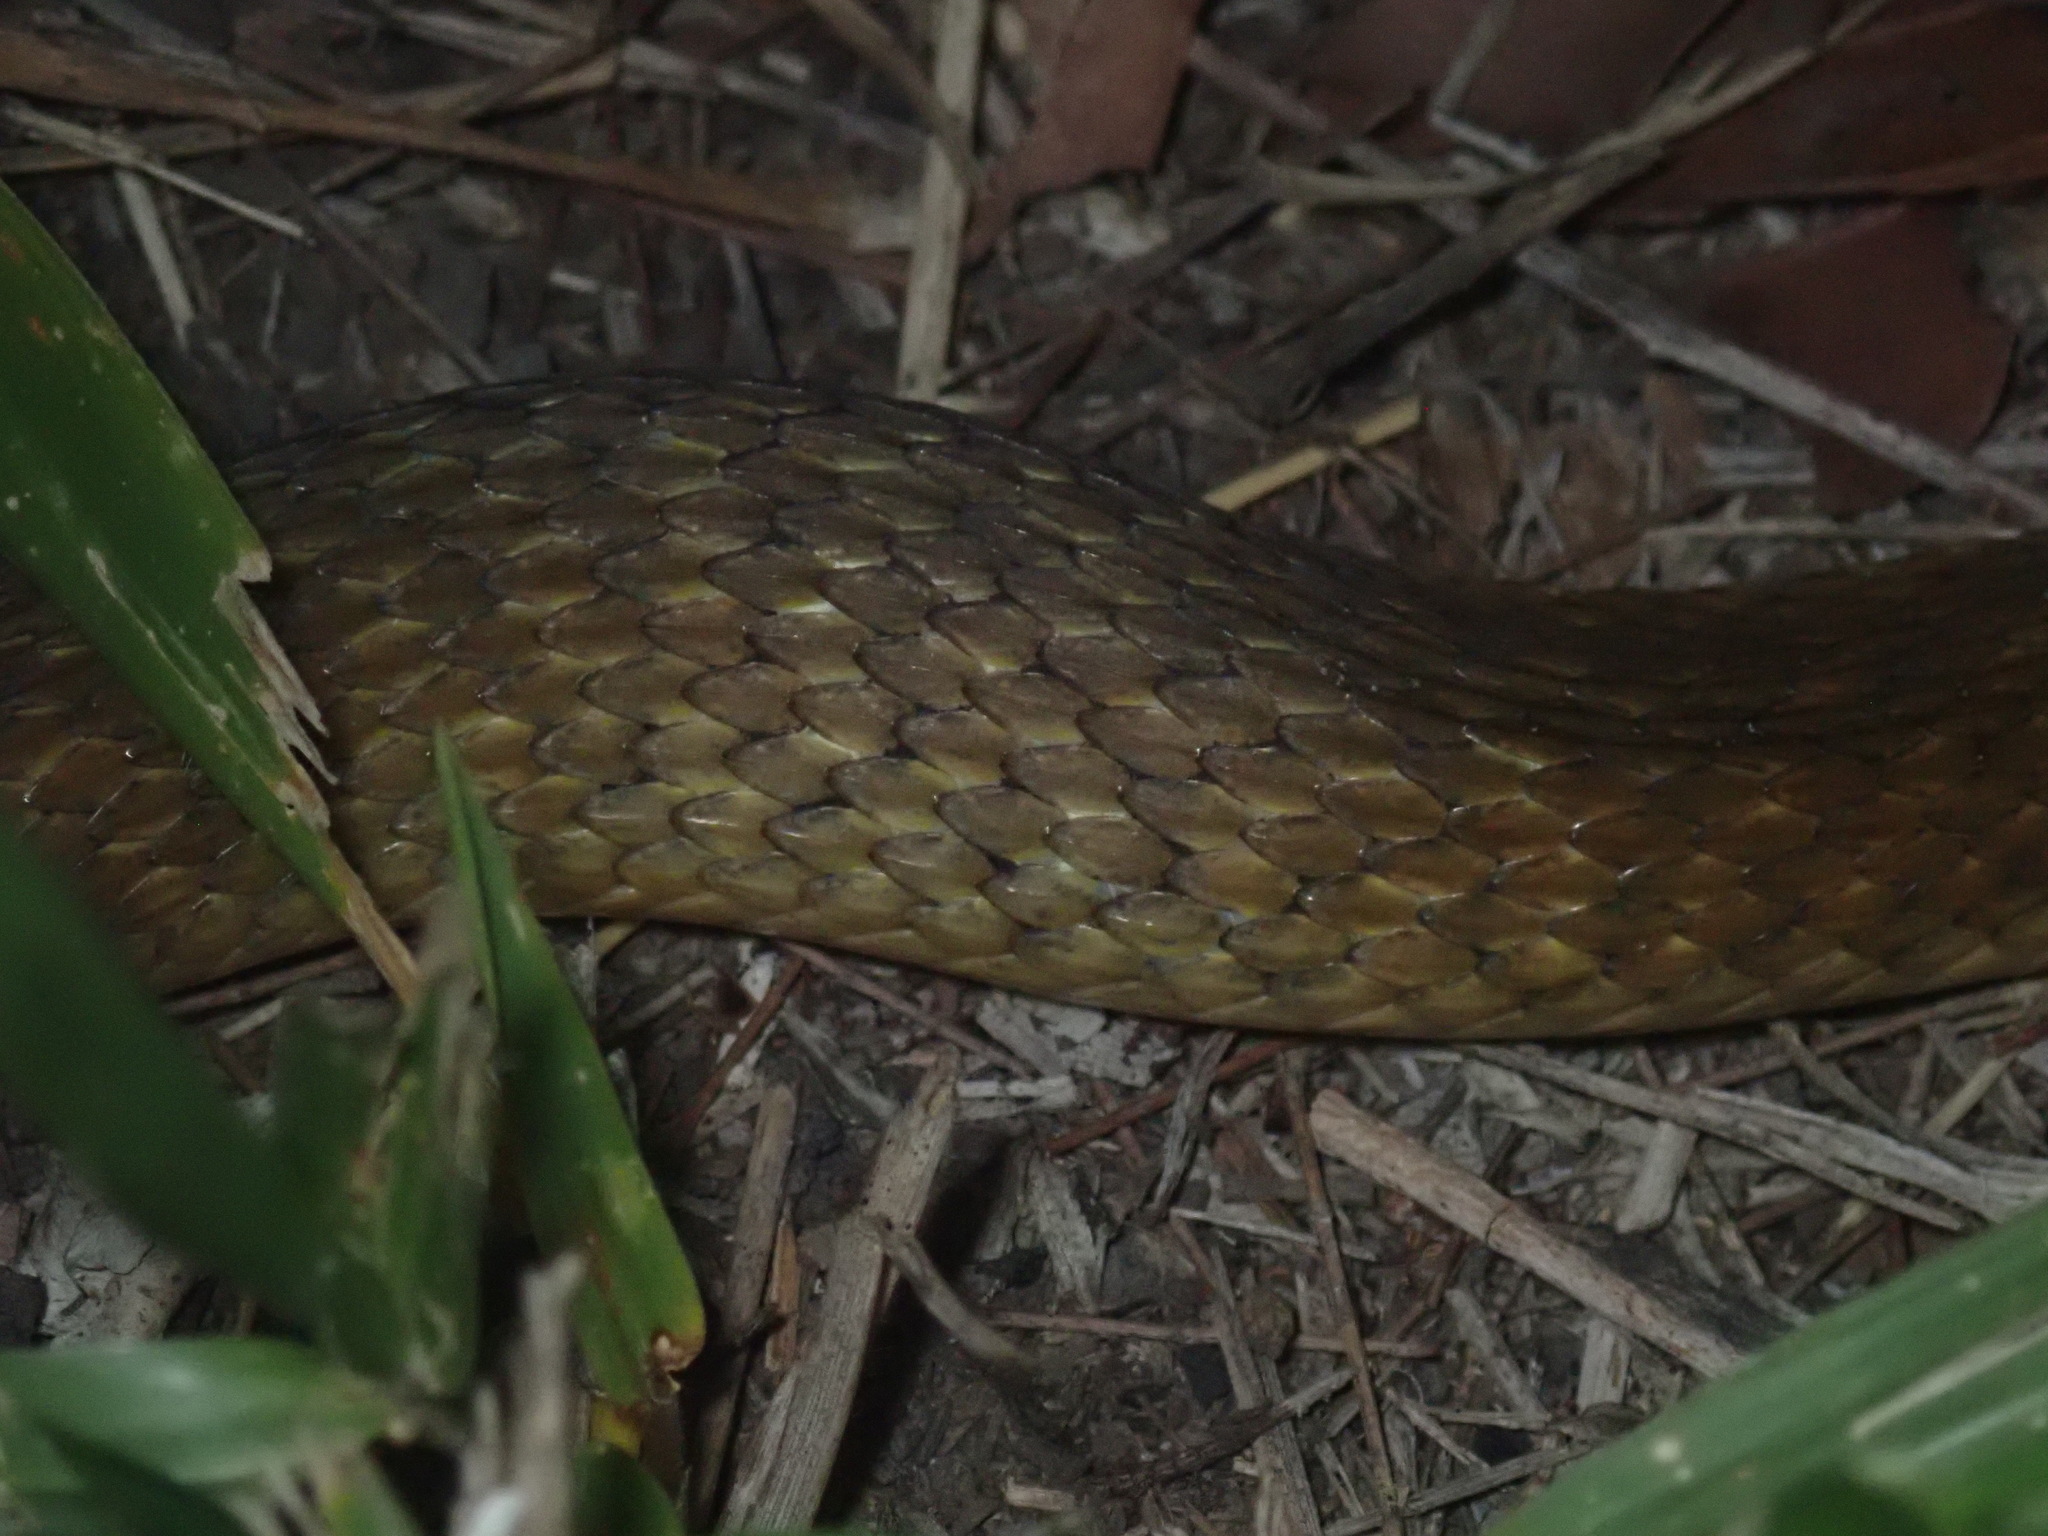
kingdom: Animalia
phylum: Chordata
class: Squamata
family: Colubridae
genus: Tropidonophis
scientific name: Tropidonophis mairii
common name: Common keelback
